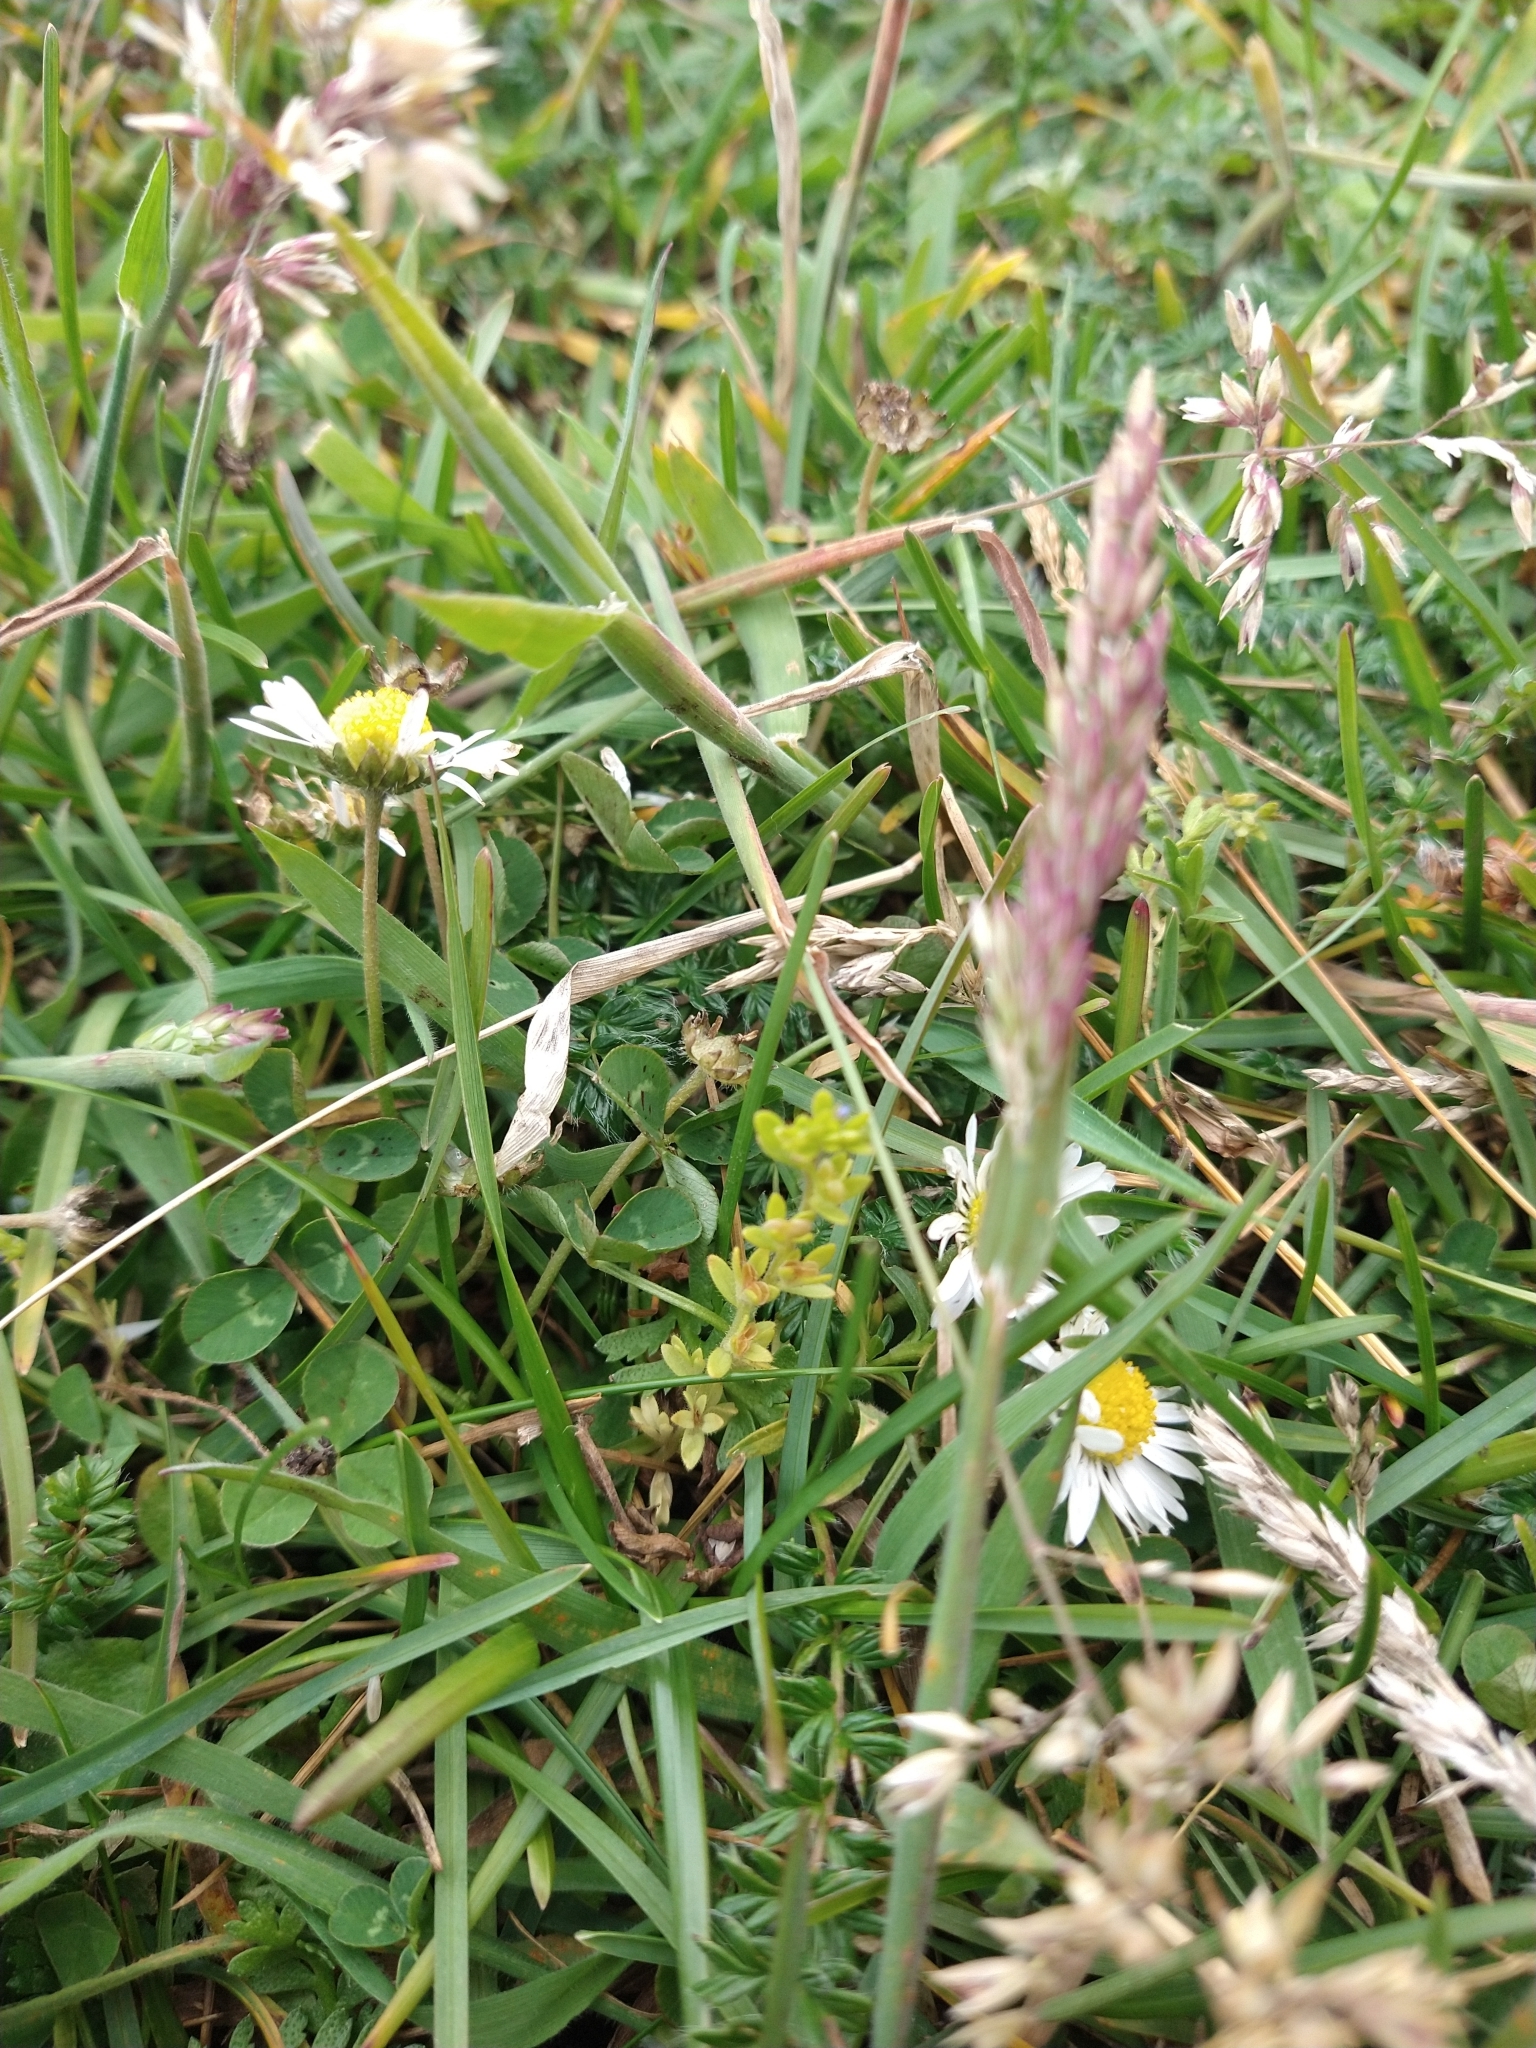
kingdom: Plantae
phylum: Tracheophyta
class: Magnoliopsida
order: Lamiales
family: Plantaginaceae
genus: Veronica
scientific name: Veronica arvensis
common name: Corn speedwell
